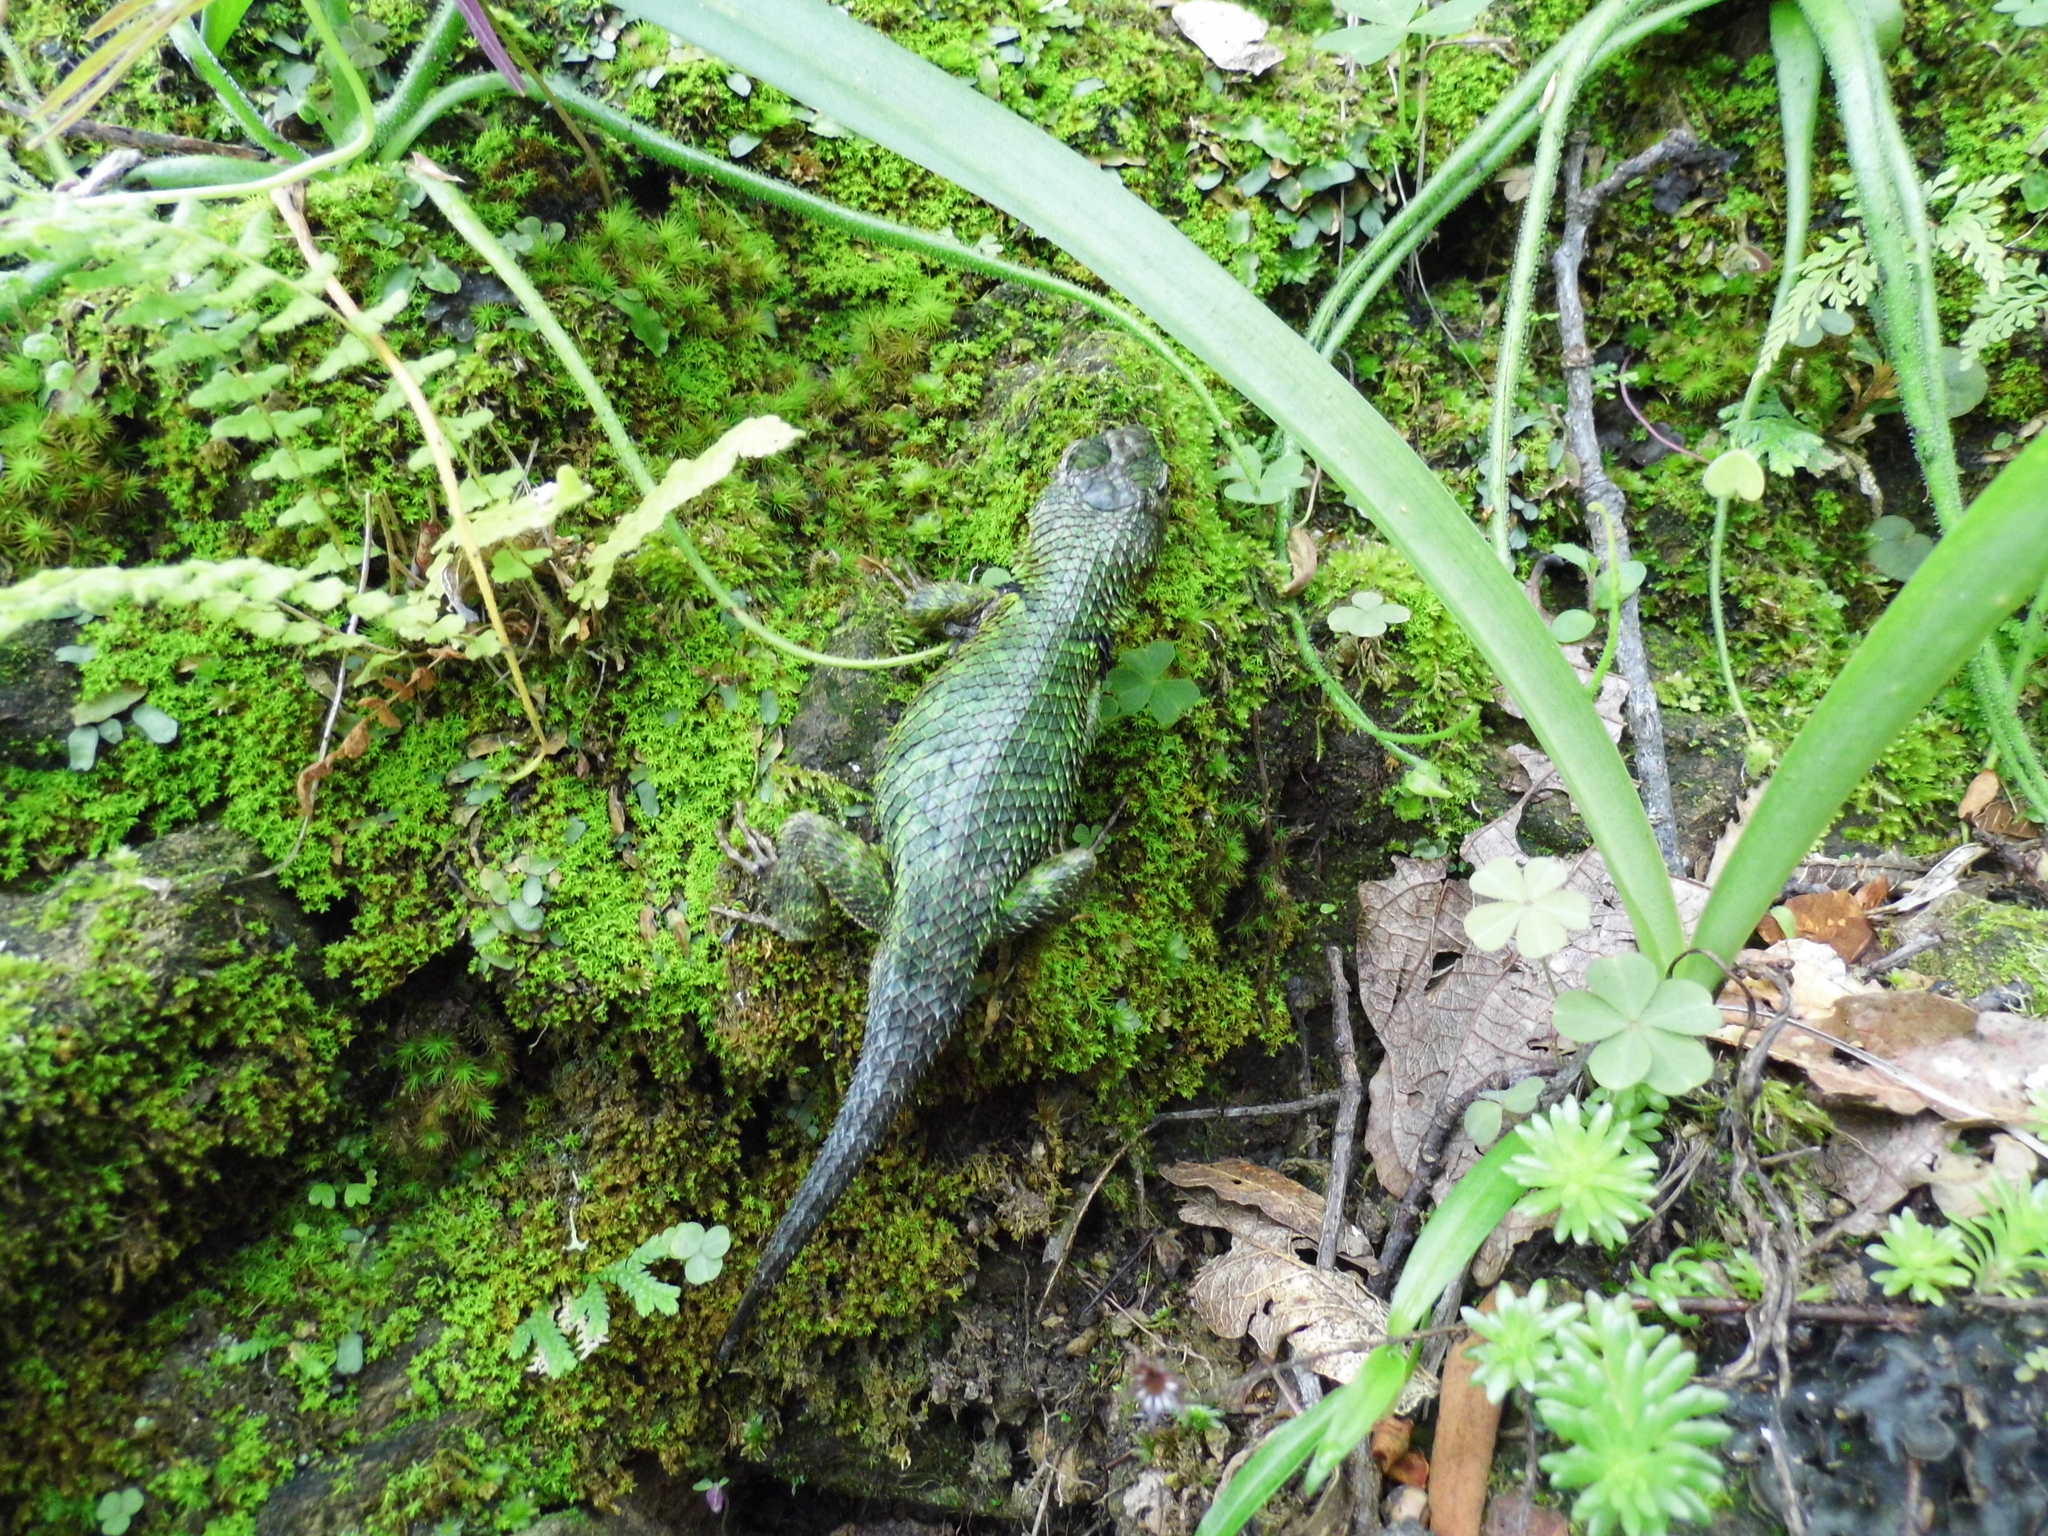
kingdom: Animalia
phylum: Chordata
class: Squamata
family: Phrynosomatidae
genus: Sceloporus
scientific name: Sceloporus formosus
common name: Mexican emerald spiny lizard
